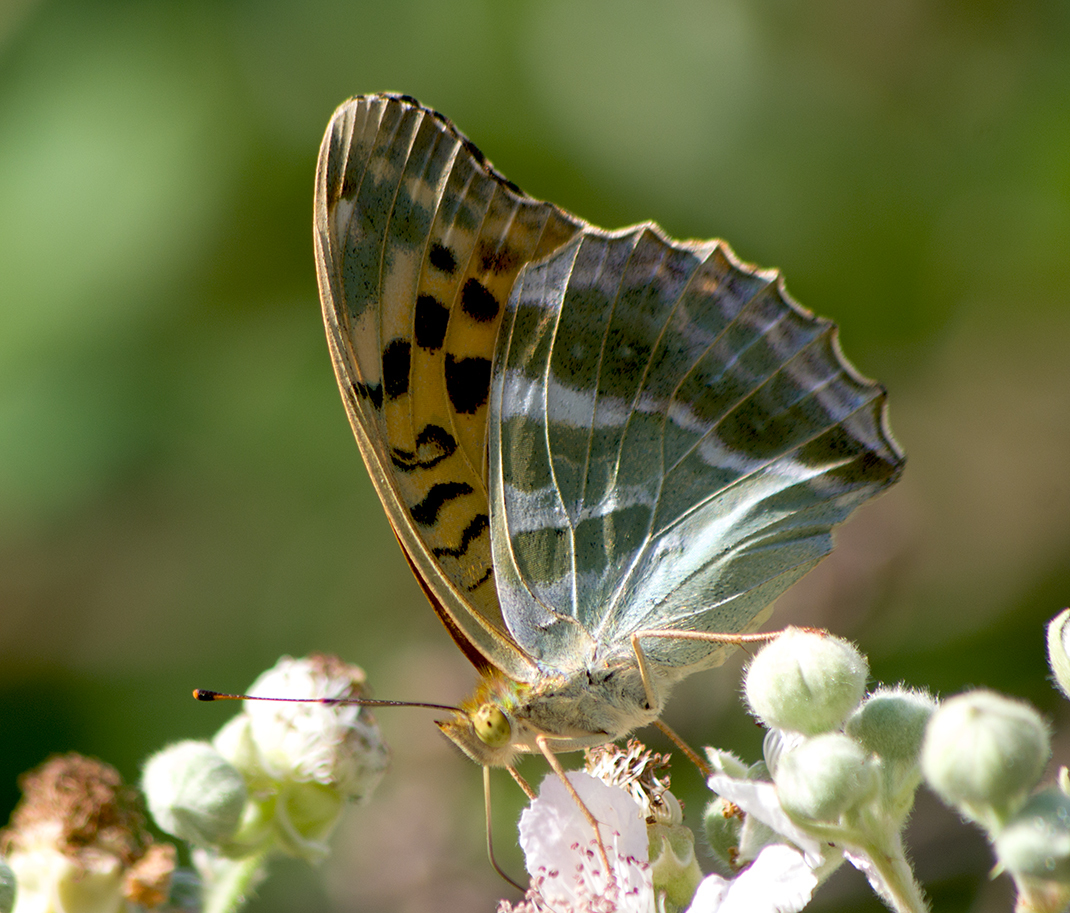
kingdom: Animalia
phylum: Arthropoda
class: Insecta
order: Lepidoptera
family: Nymphalidae
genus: Argynnis
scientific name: Argynnis paphia
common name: Silver-washed fritillary
